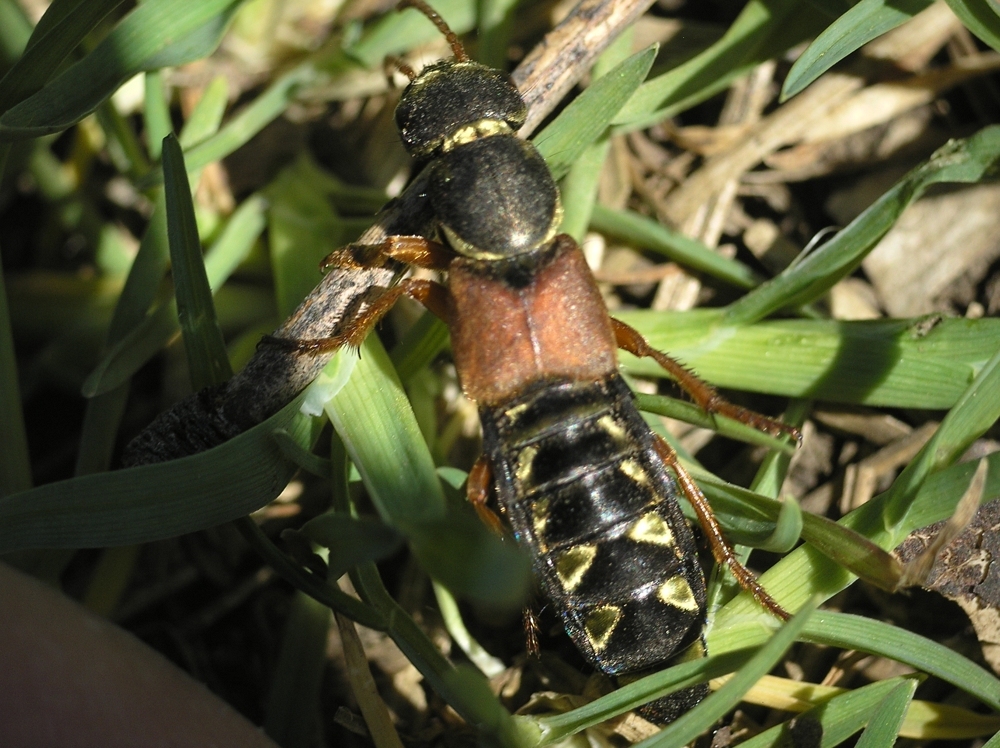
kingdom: Animalia
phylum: Arthropoda
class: Insecta
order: Coleoptera
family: Staphylinidae
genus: Staphylinus
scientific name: Staphylinus caesareus
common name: Staph beetle
